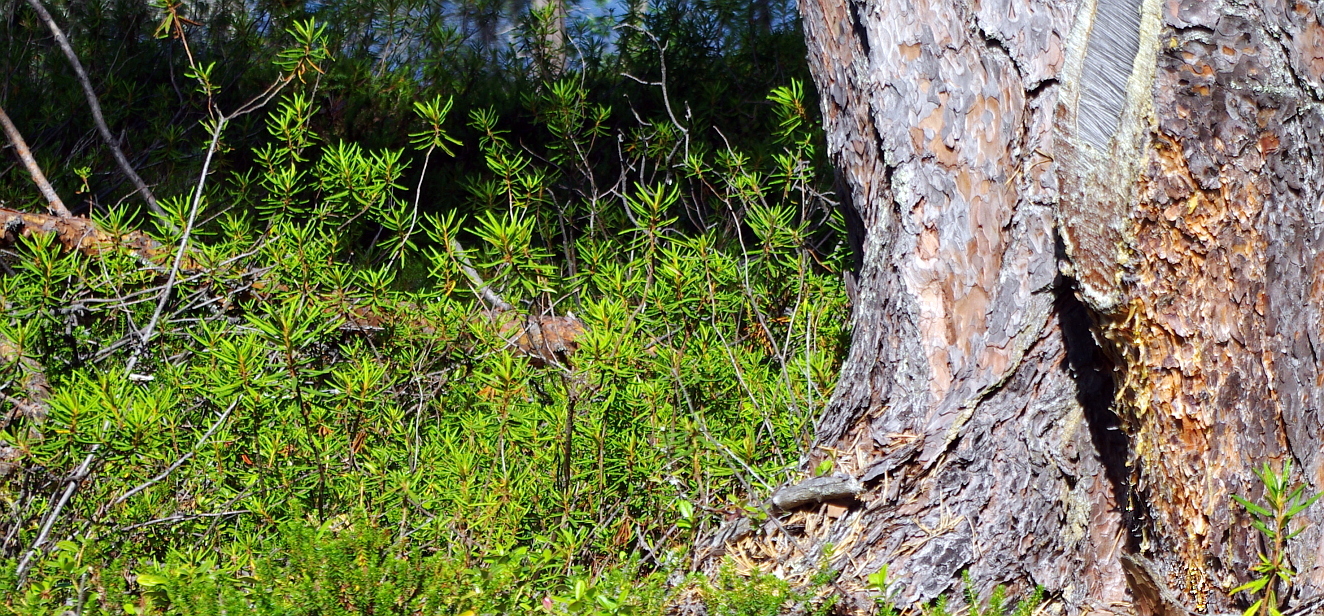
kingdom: Plantae
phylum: Tracheophyta
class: Magnoliopsida
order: Ericales
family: Ericaceae
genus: Rhododendron
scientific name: Rhododendron tomentosum
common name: Marsh labrador tea
